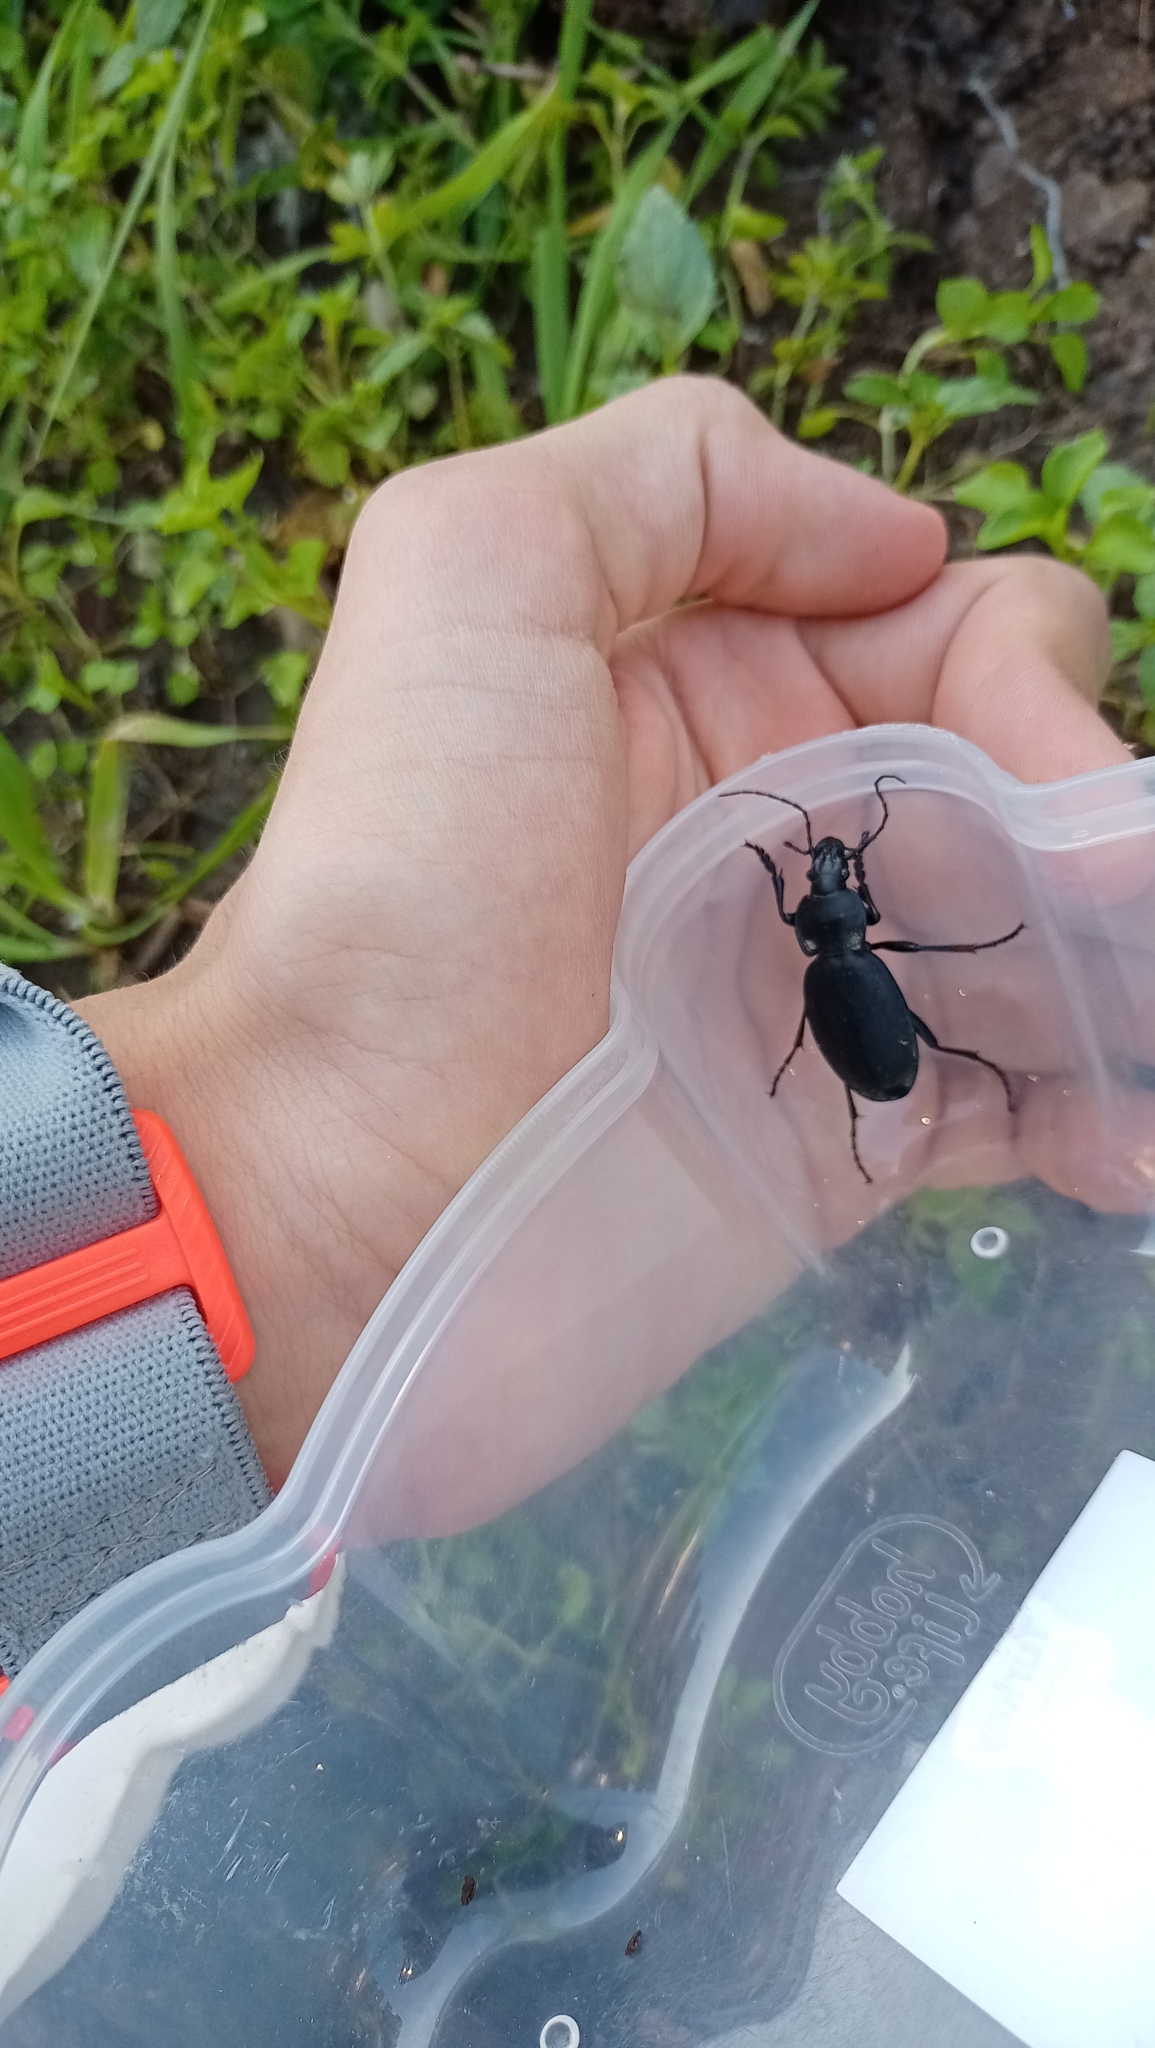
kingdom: Animalia
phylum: Arthropoda
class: Insecta
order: Coleoptera
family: Carabidae
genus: Carabus
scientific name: Carabus coriaceus
